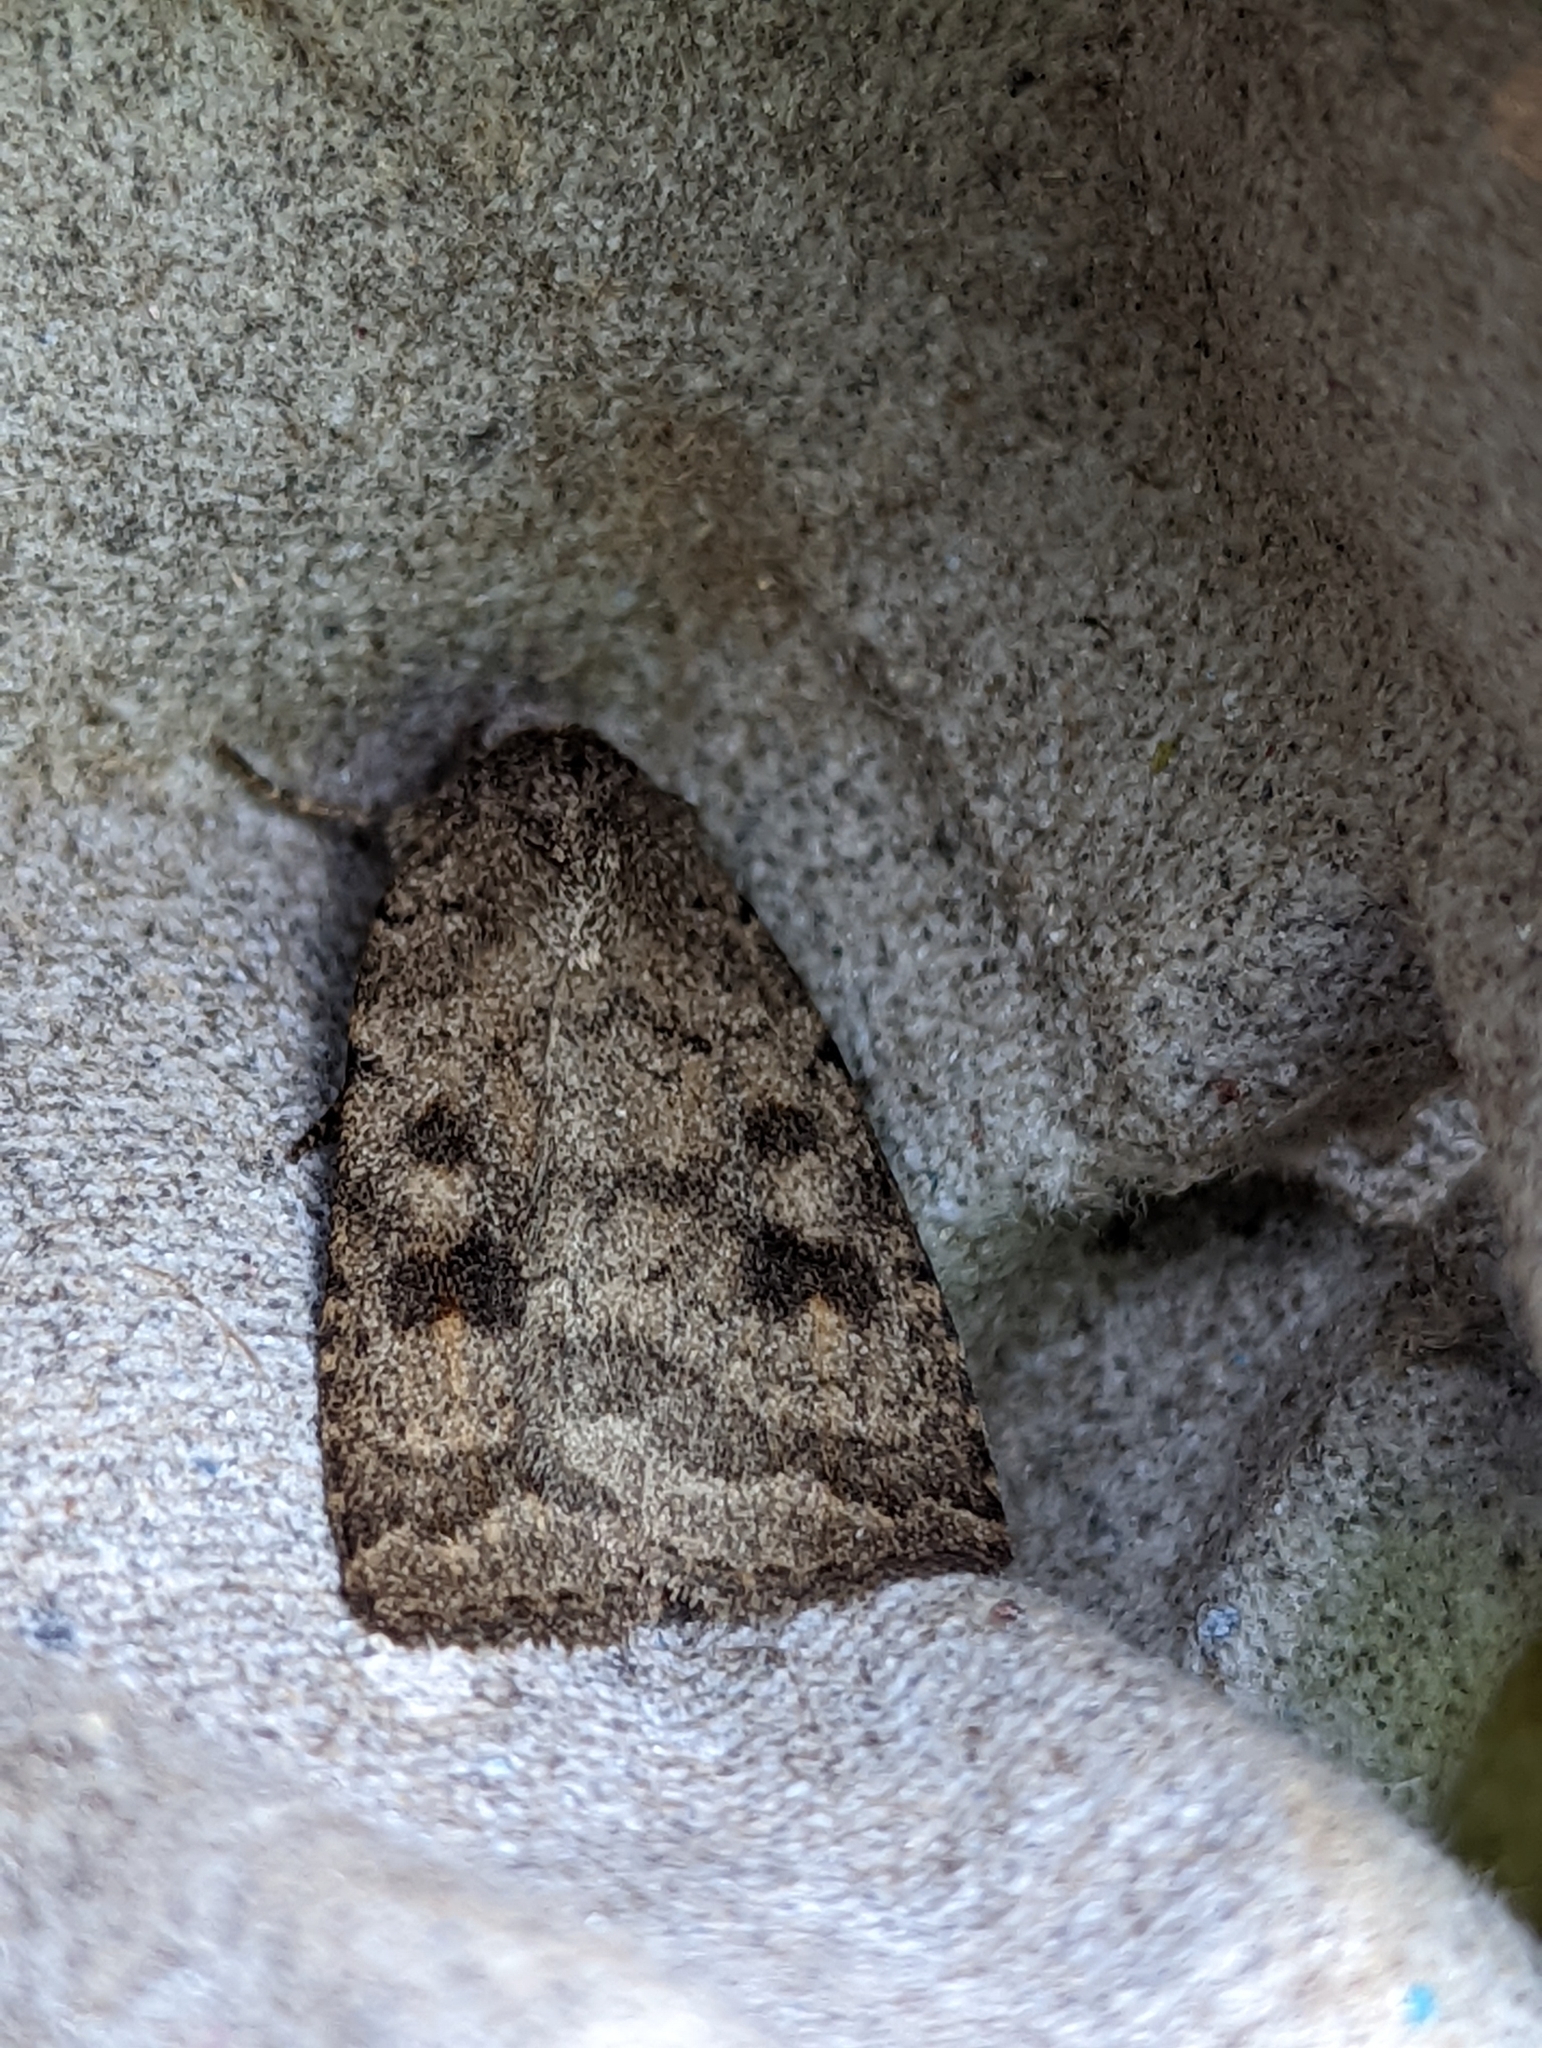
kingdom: Animalia
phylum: Arthropoda
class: Insecta
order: Lepidoptera
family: Noctuidae
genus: Caradrina
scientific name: Caradrina morpheus
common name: Mottled rustic
